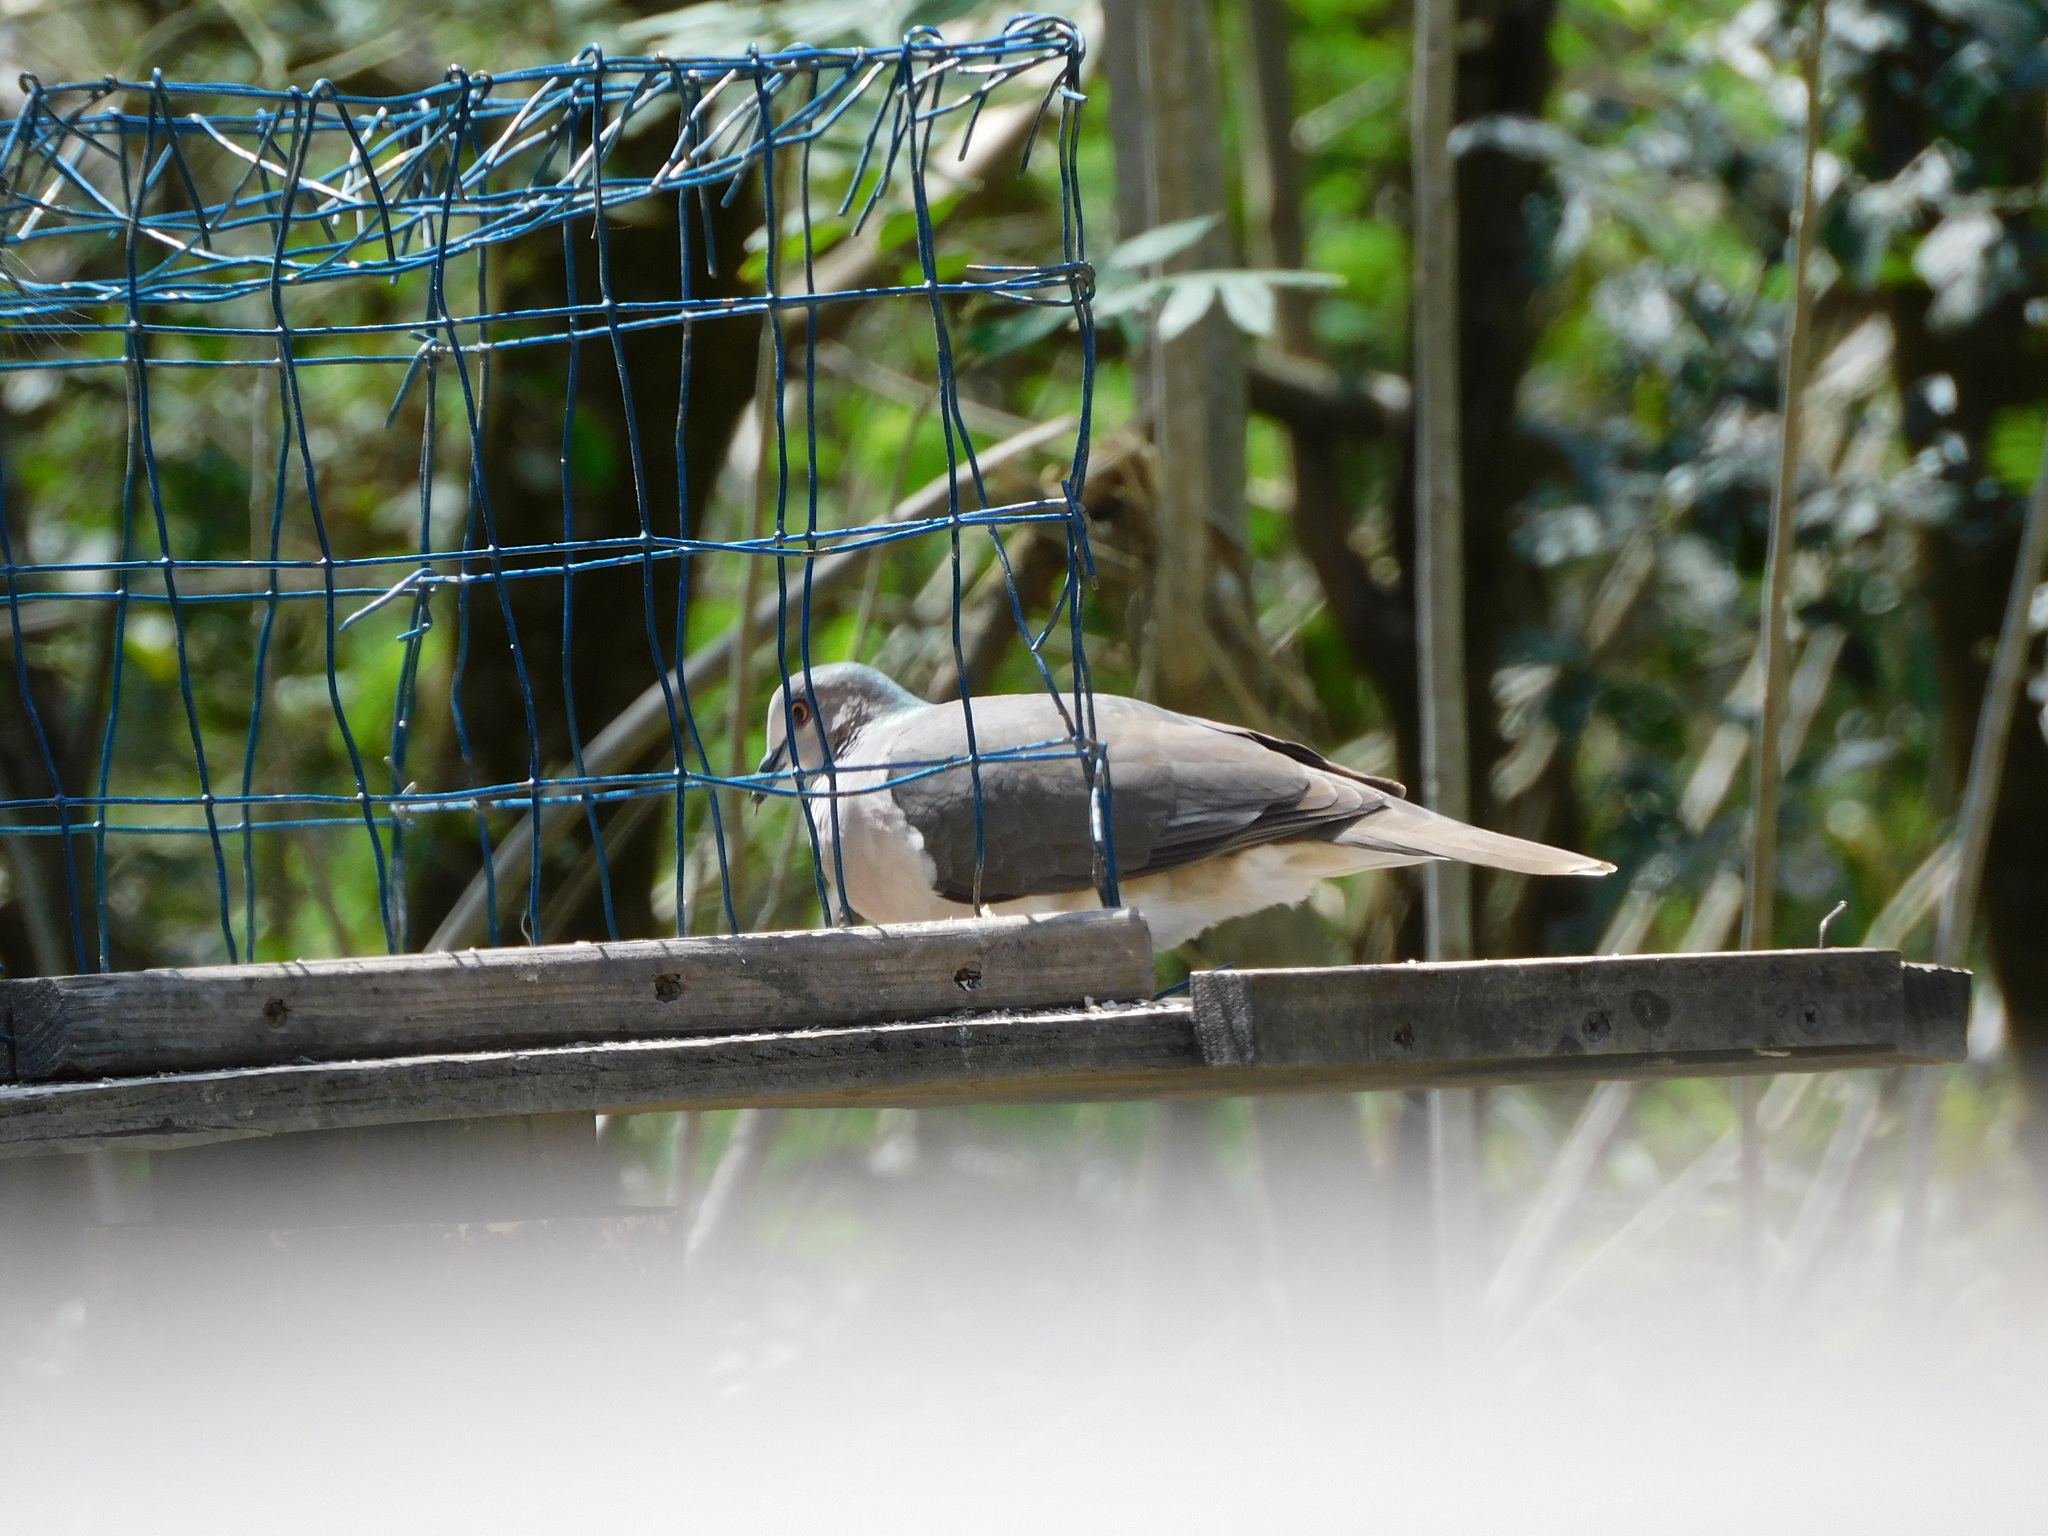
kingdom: Animalia
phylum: Chordata
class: Aves
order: Columbiformes
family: Columbidae
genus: Leptotila
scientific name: Leptotila verreauxi
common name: White-tipped dove
